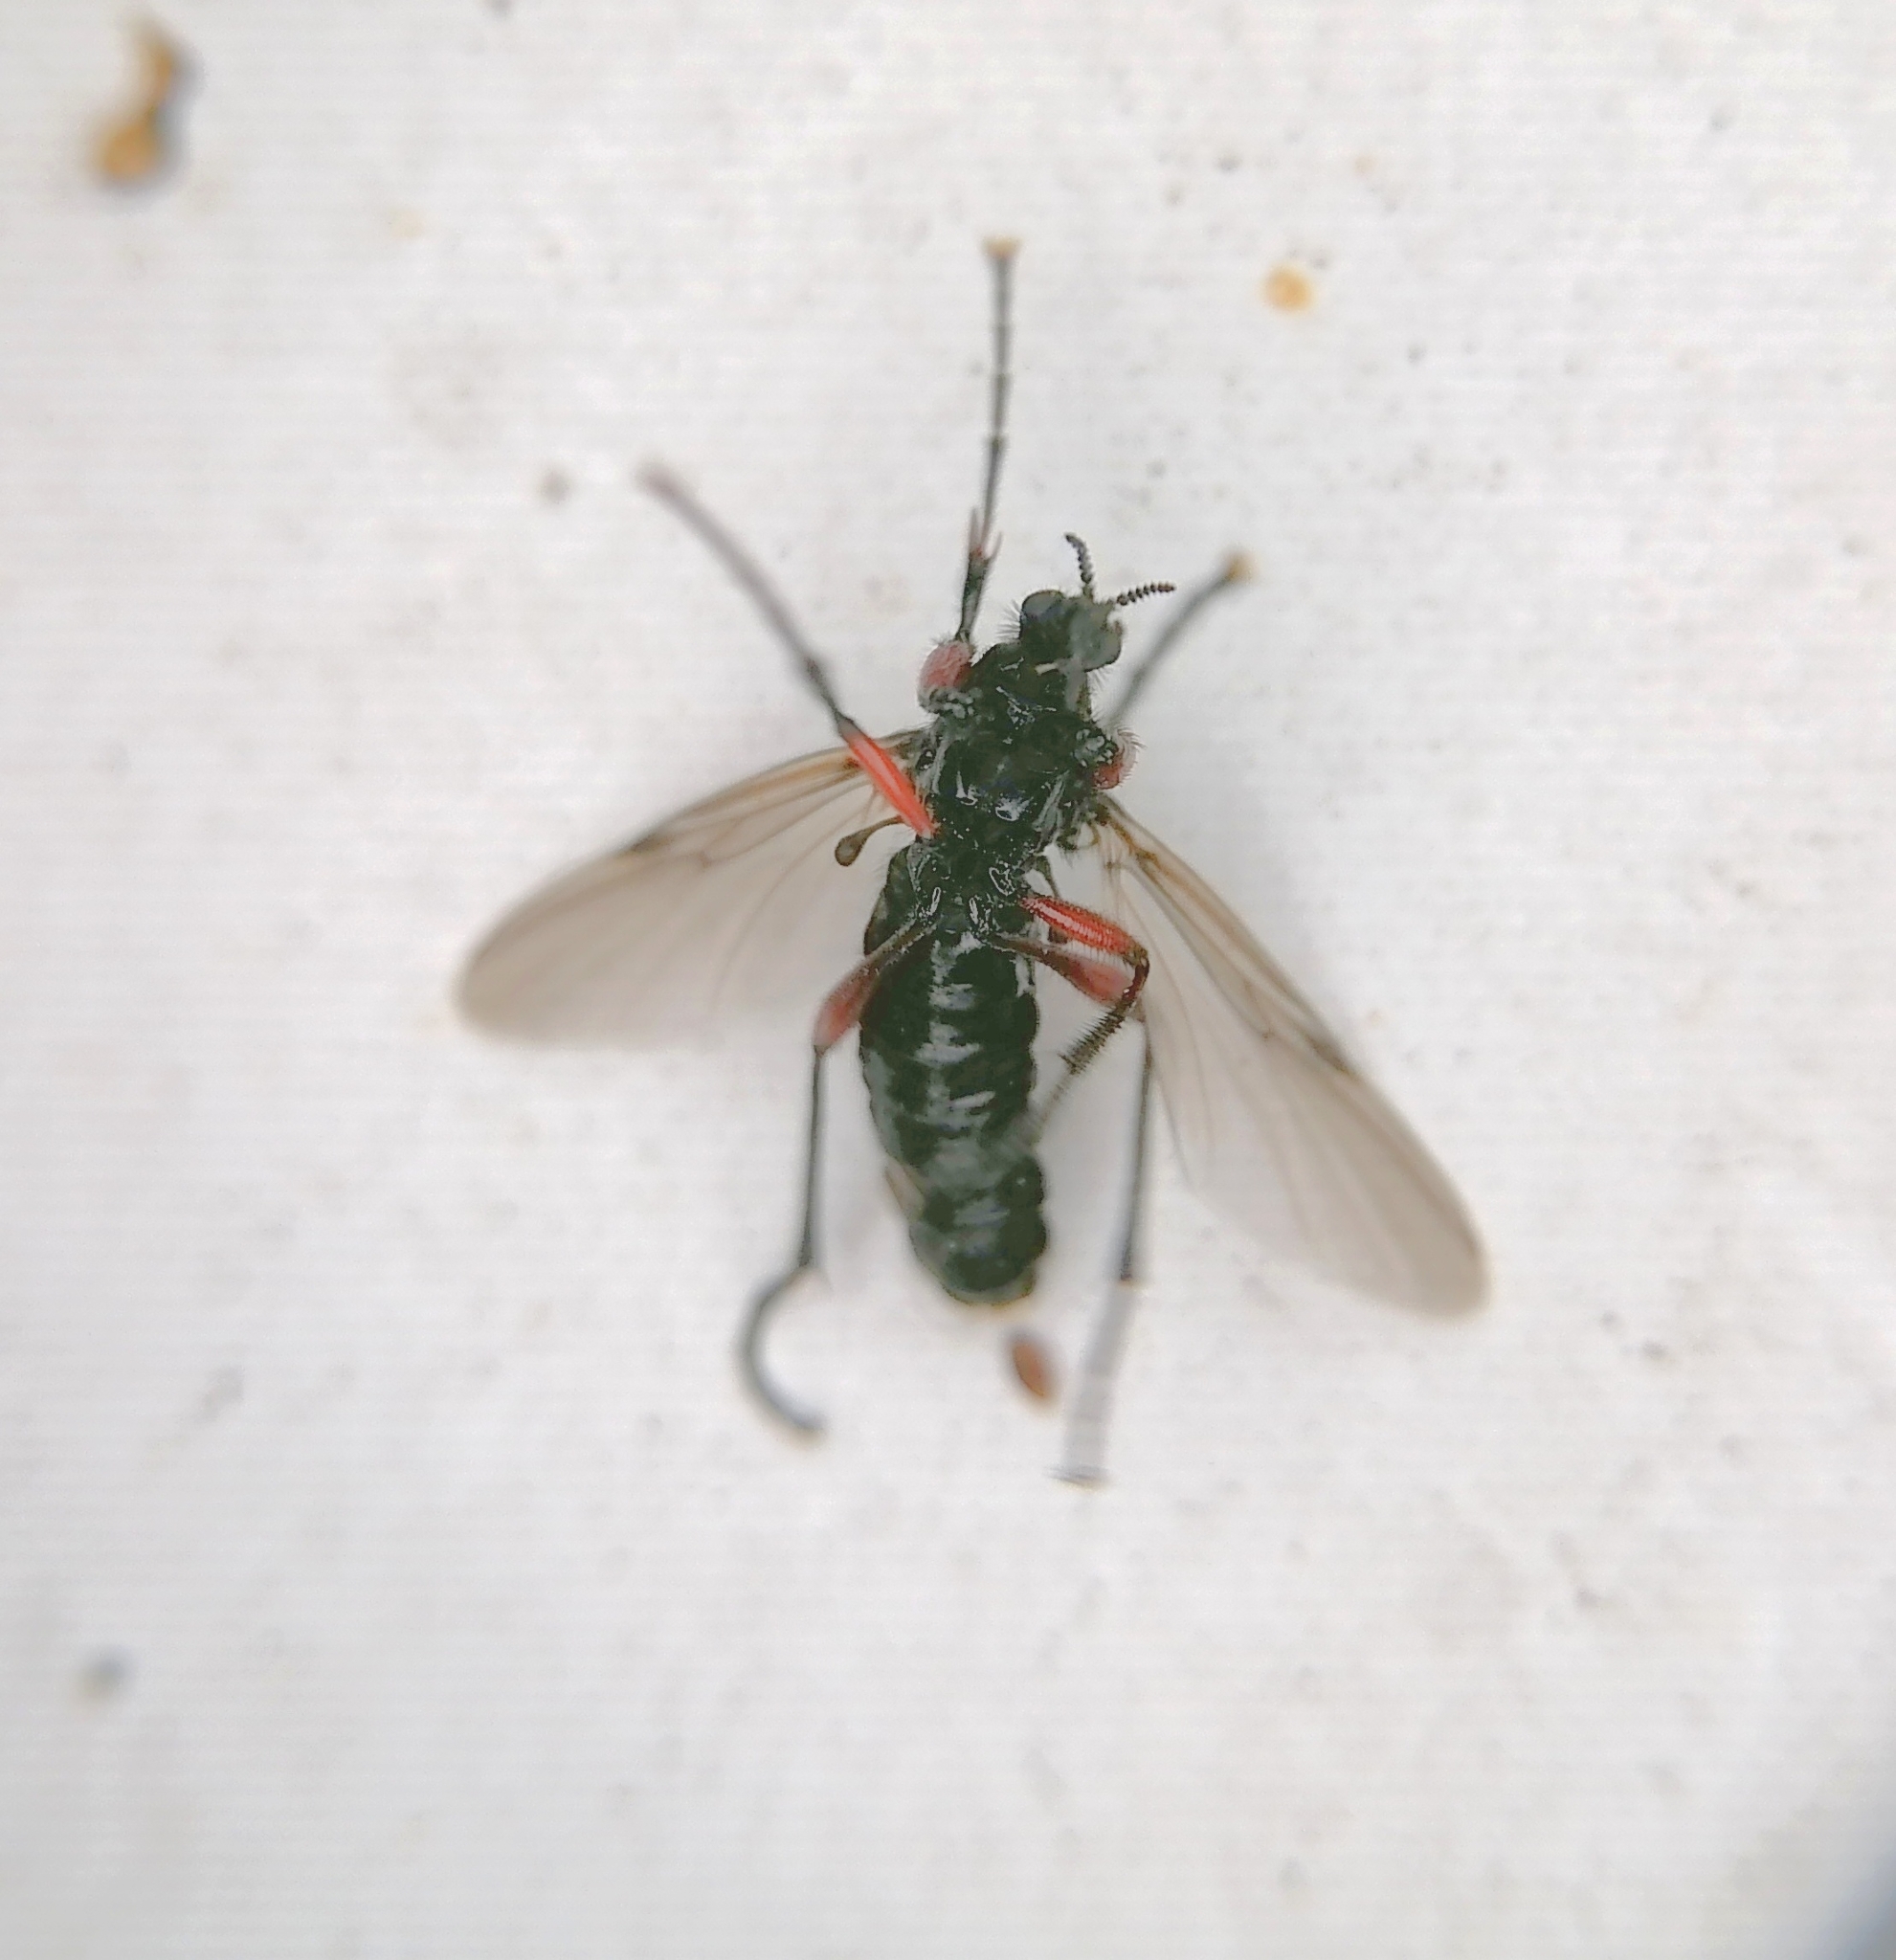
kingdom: Animalia
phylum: Arthropoda
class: Insecta
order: Diptera
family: Bibionidae
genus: Bibio
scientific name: Bibio pomonae
